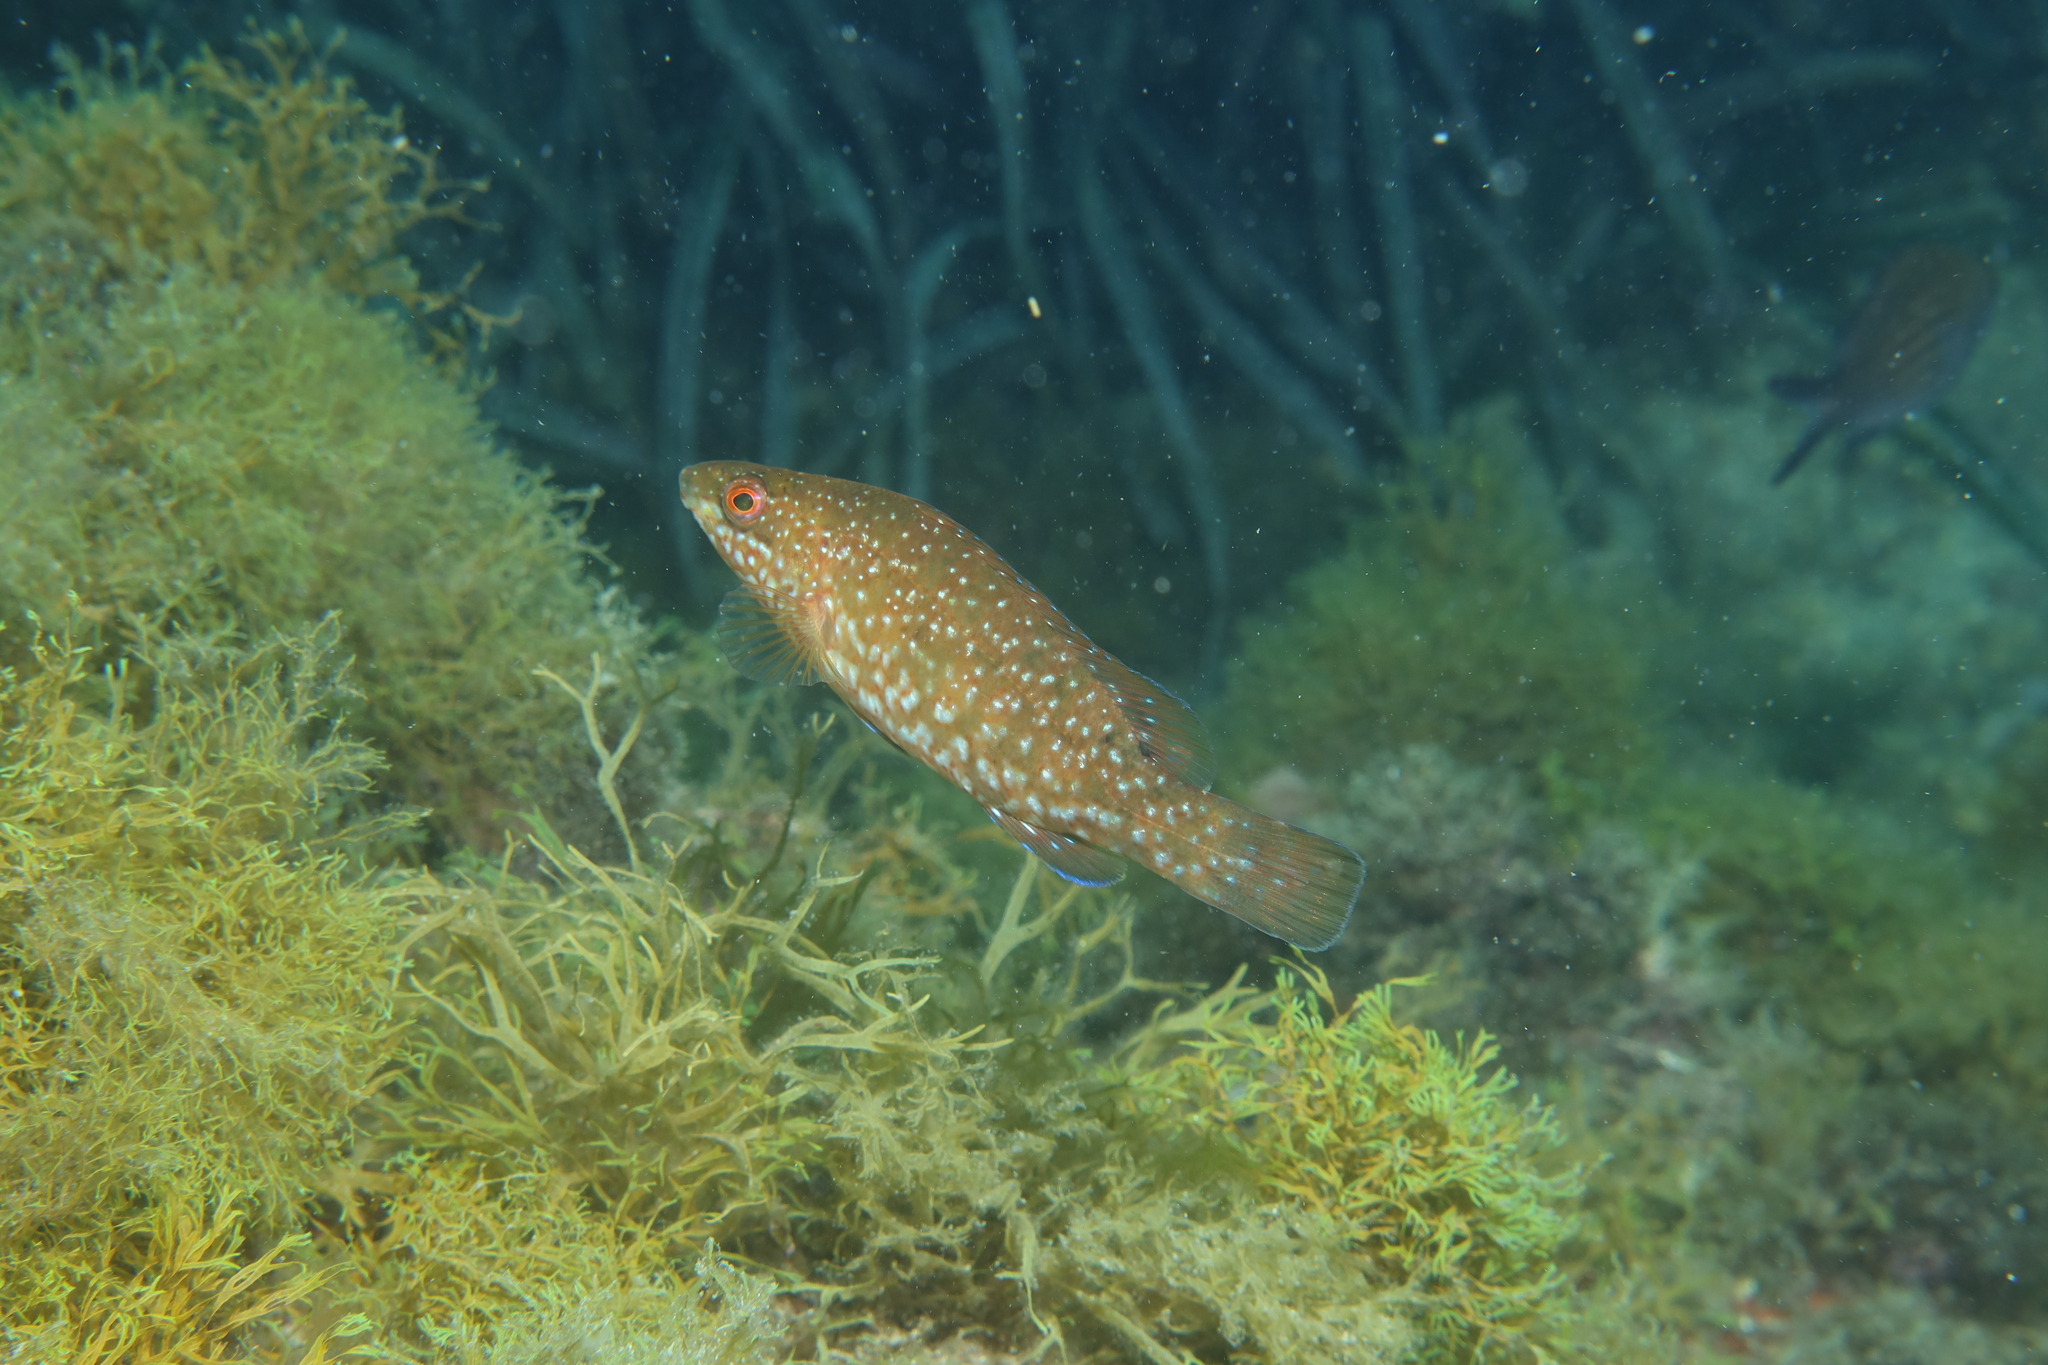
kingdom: Animalia
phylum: Chordata
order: Perciformes
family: Labridae
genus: Labrus
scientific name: Labrus viridis
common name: Green wrasse
